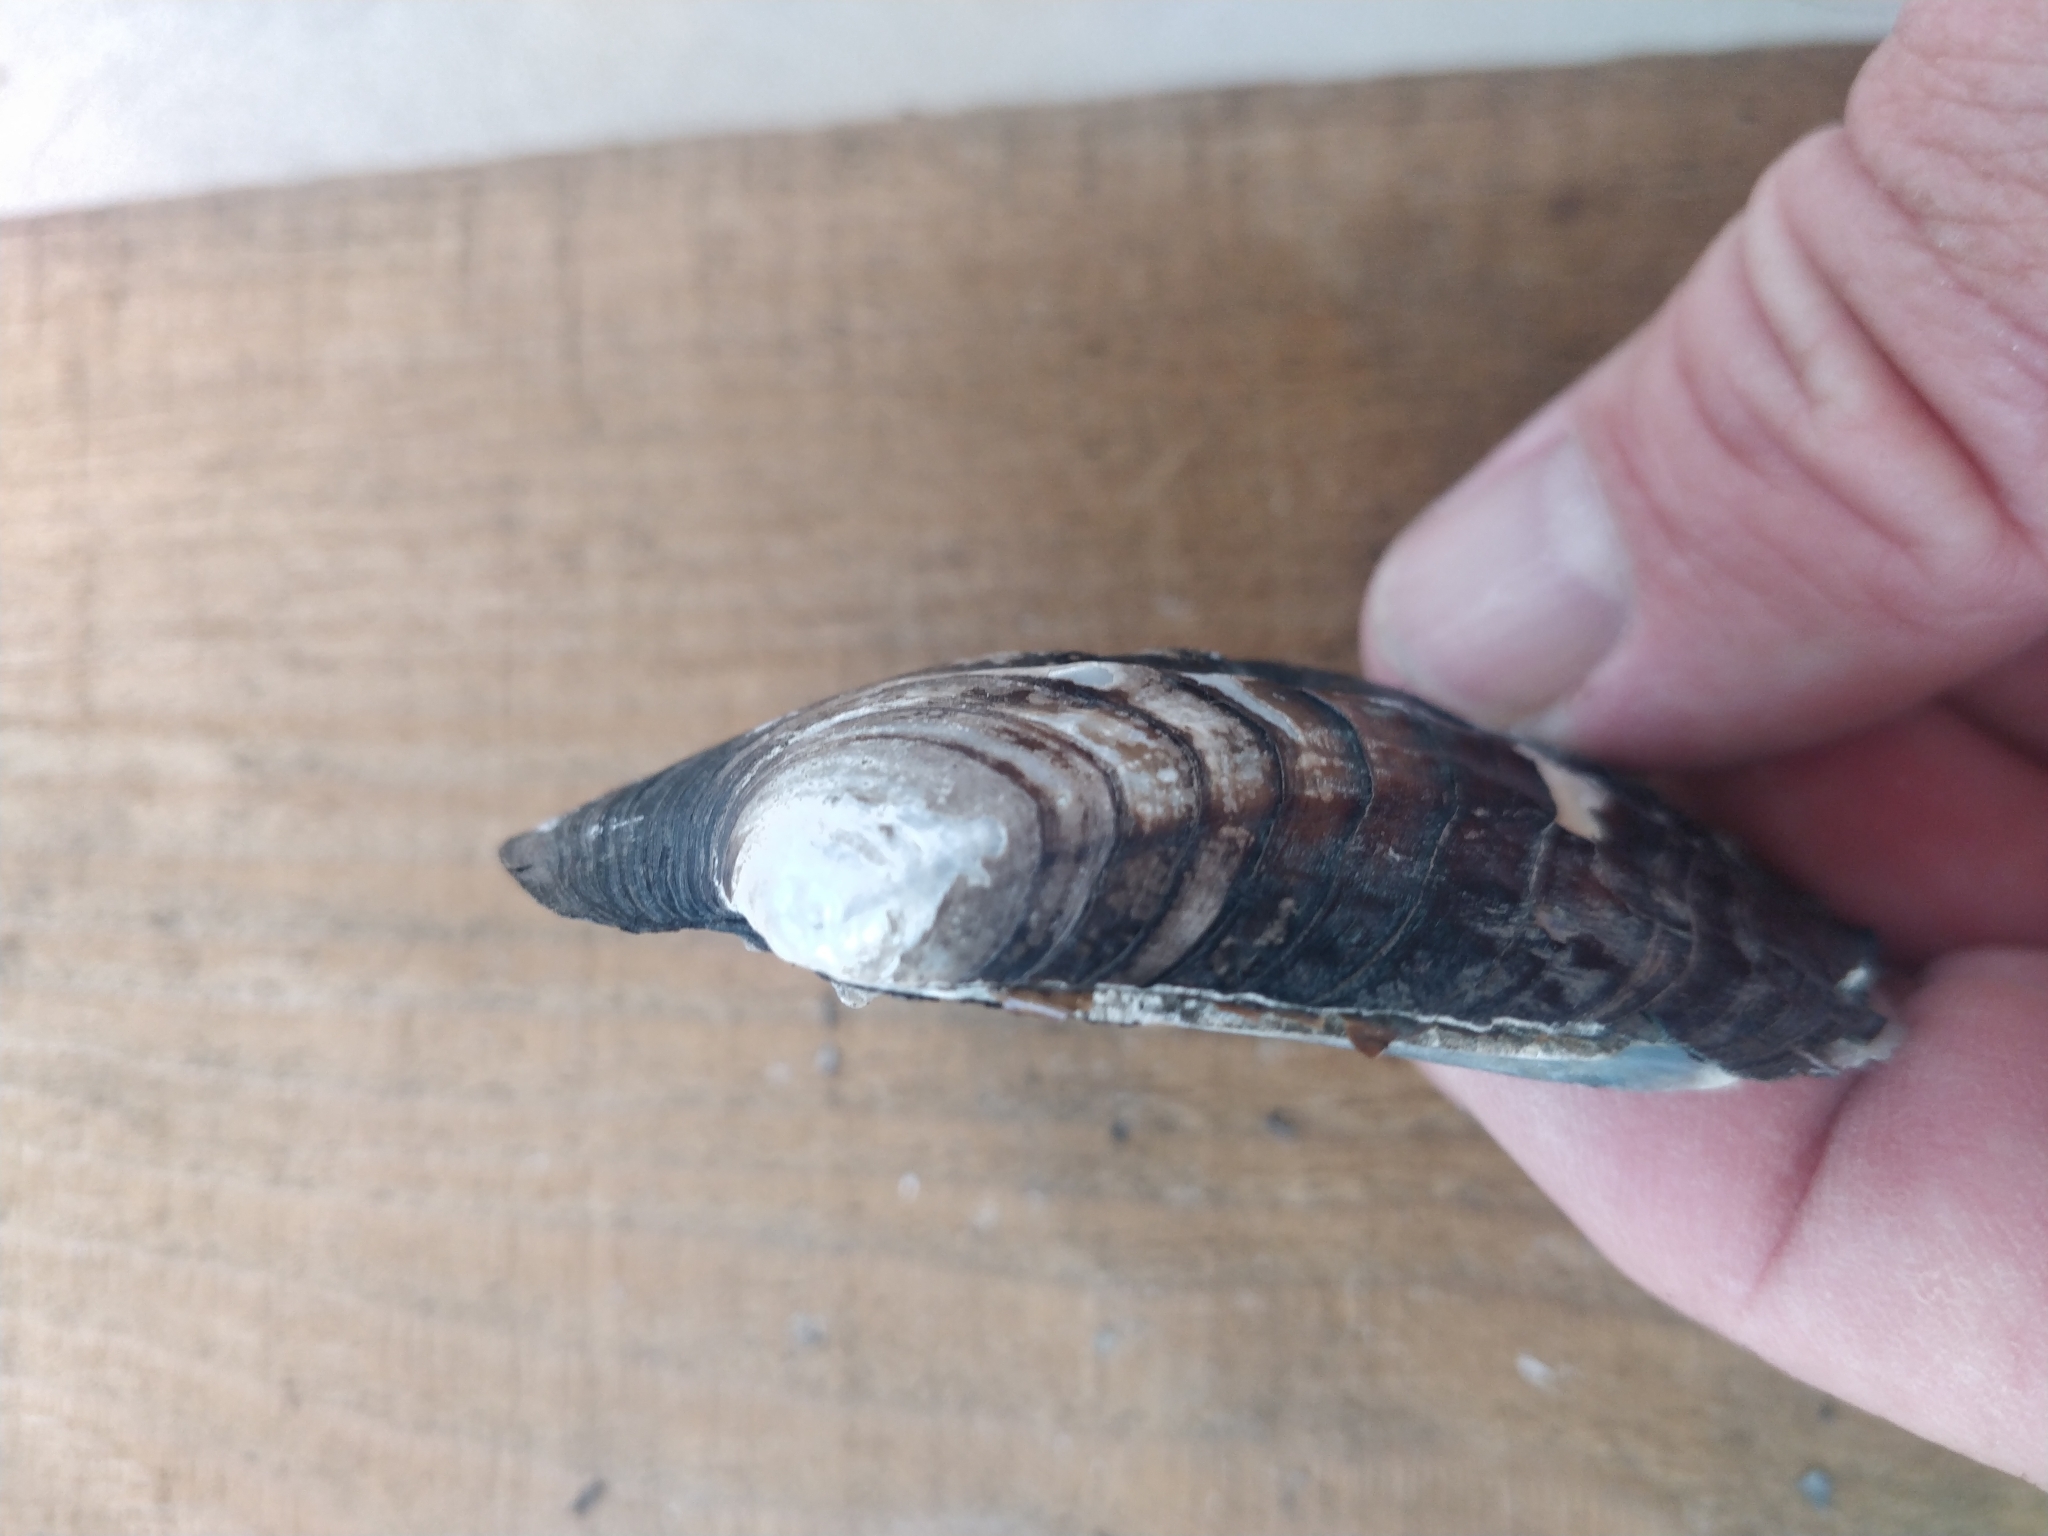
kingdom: Animalia
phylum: Mollusca
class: Bivalvia
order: Unionida
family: Unionidae
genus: Amblema
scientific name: Amblema plicata
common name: Threeridge
